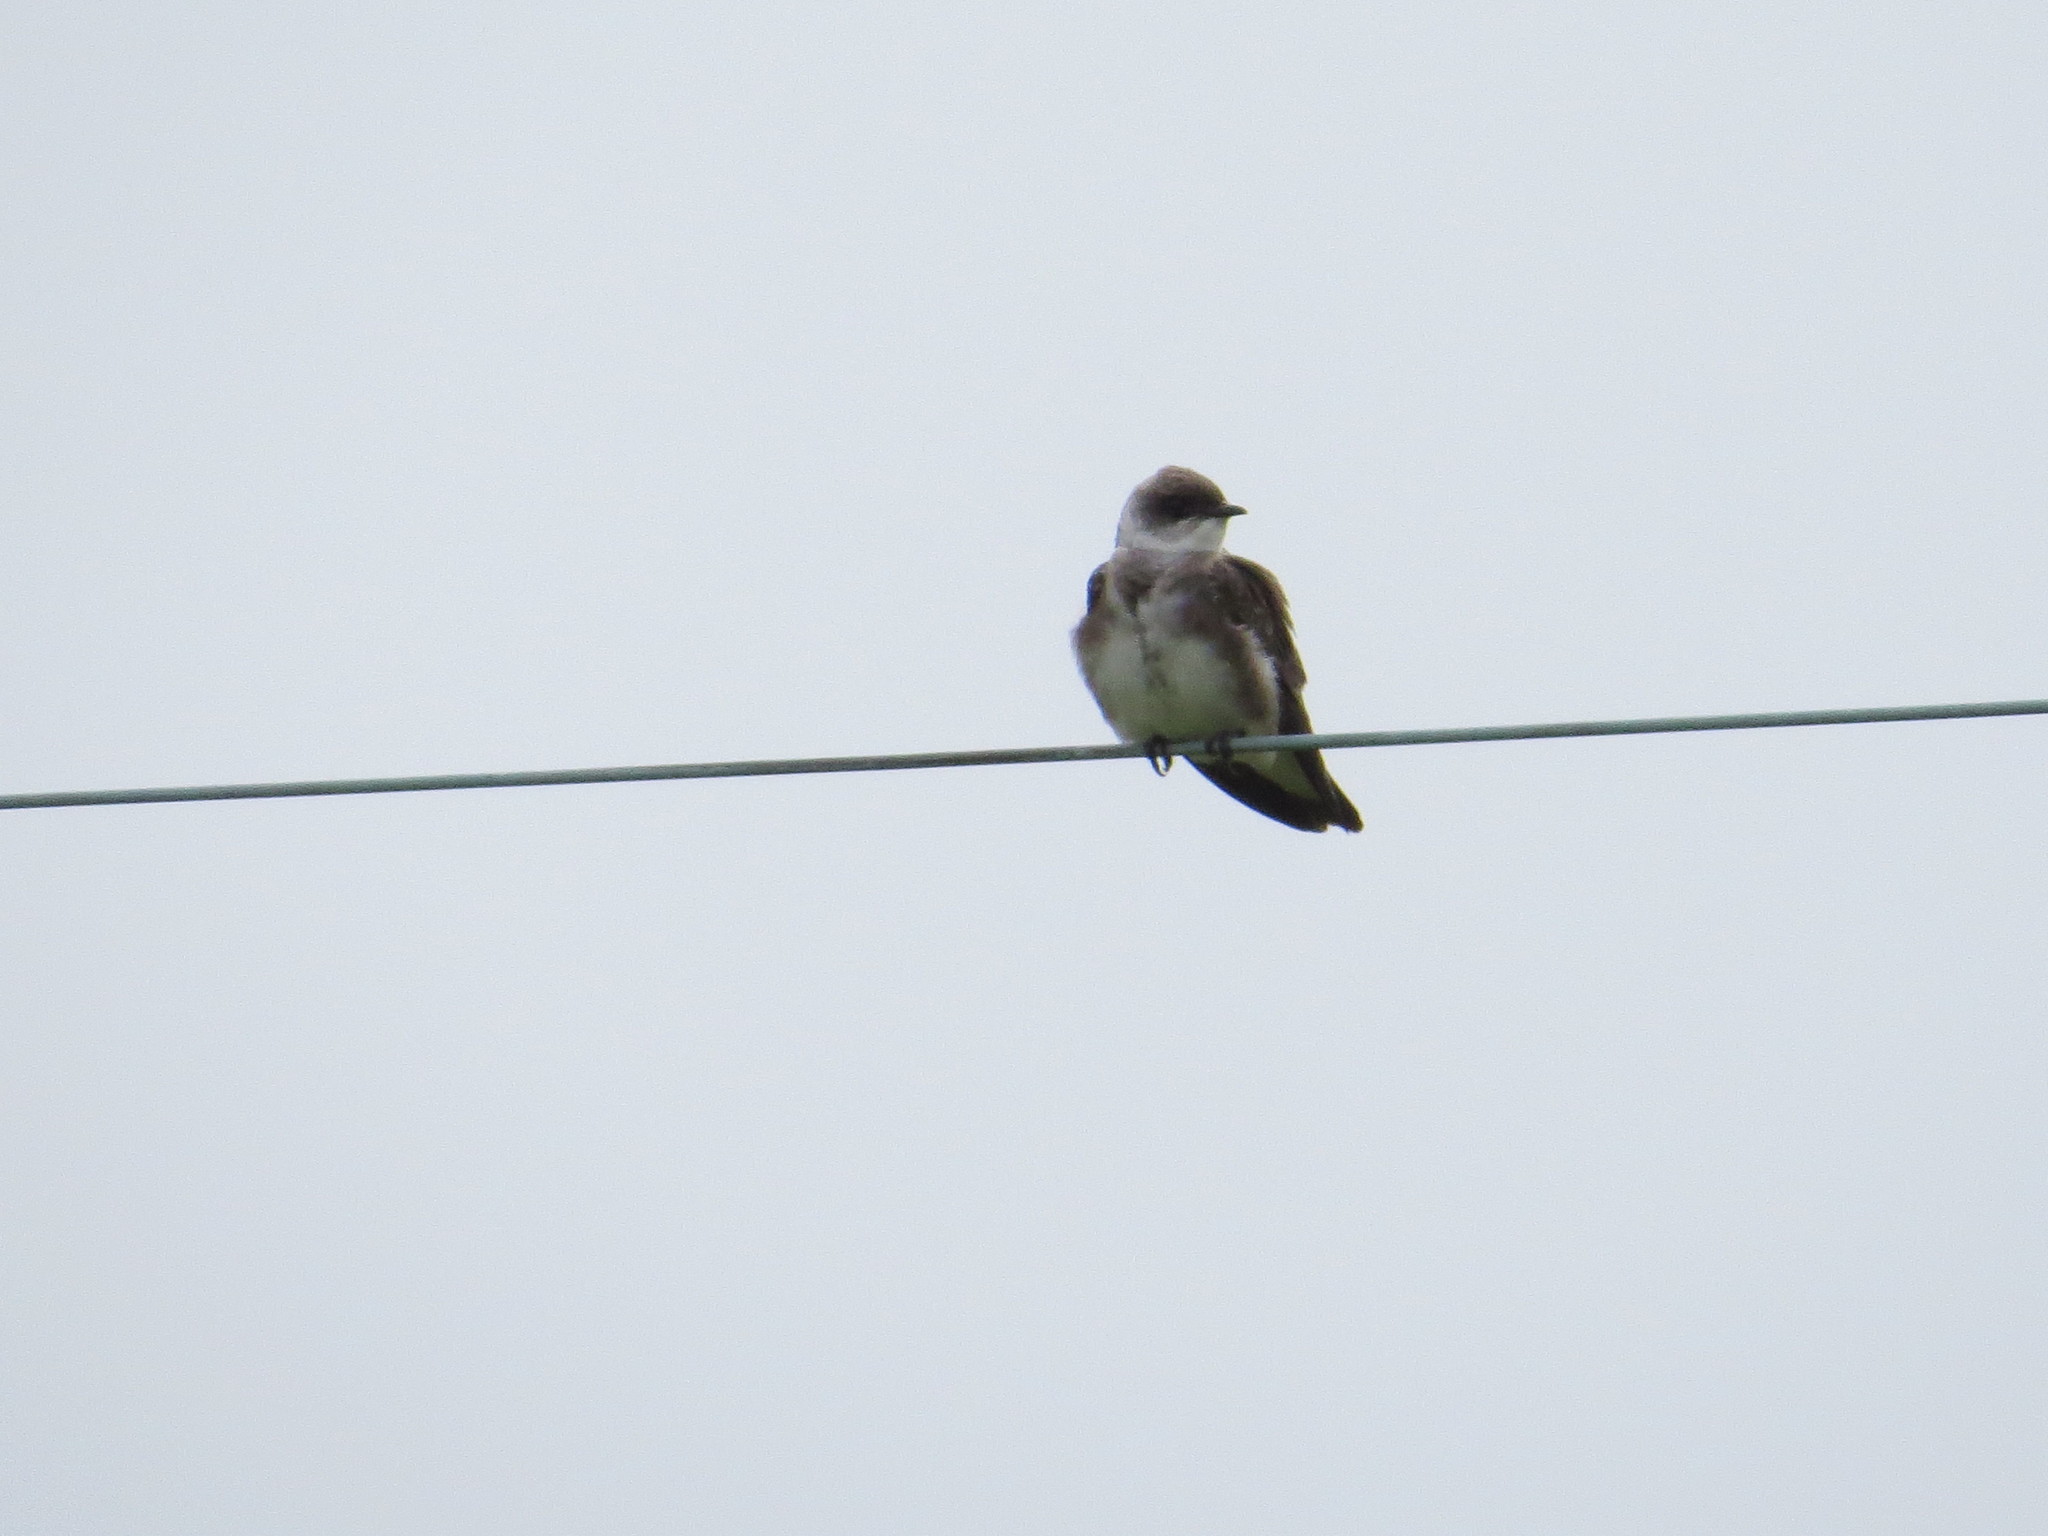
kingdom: Animalia
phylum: Chordata
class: Aves
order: Passeriformes
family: Hirundinidae
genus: Progne
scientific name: Progne tapera
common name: Brown-chested martin
